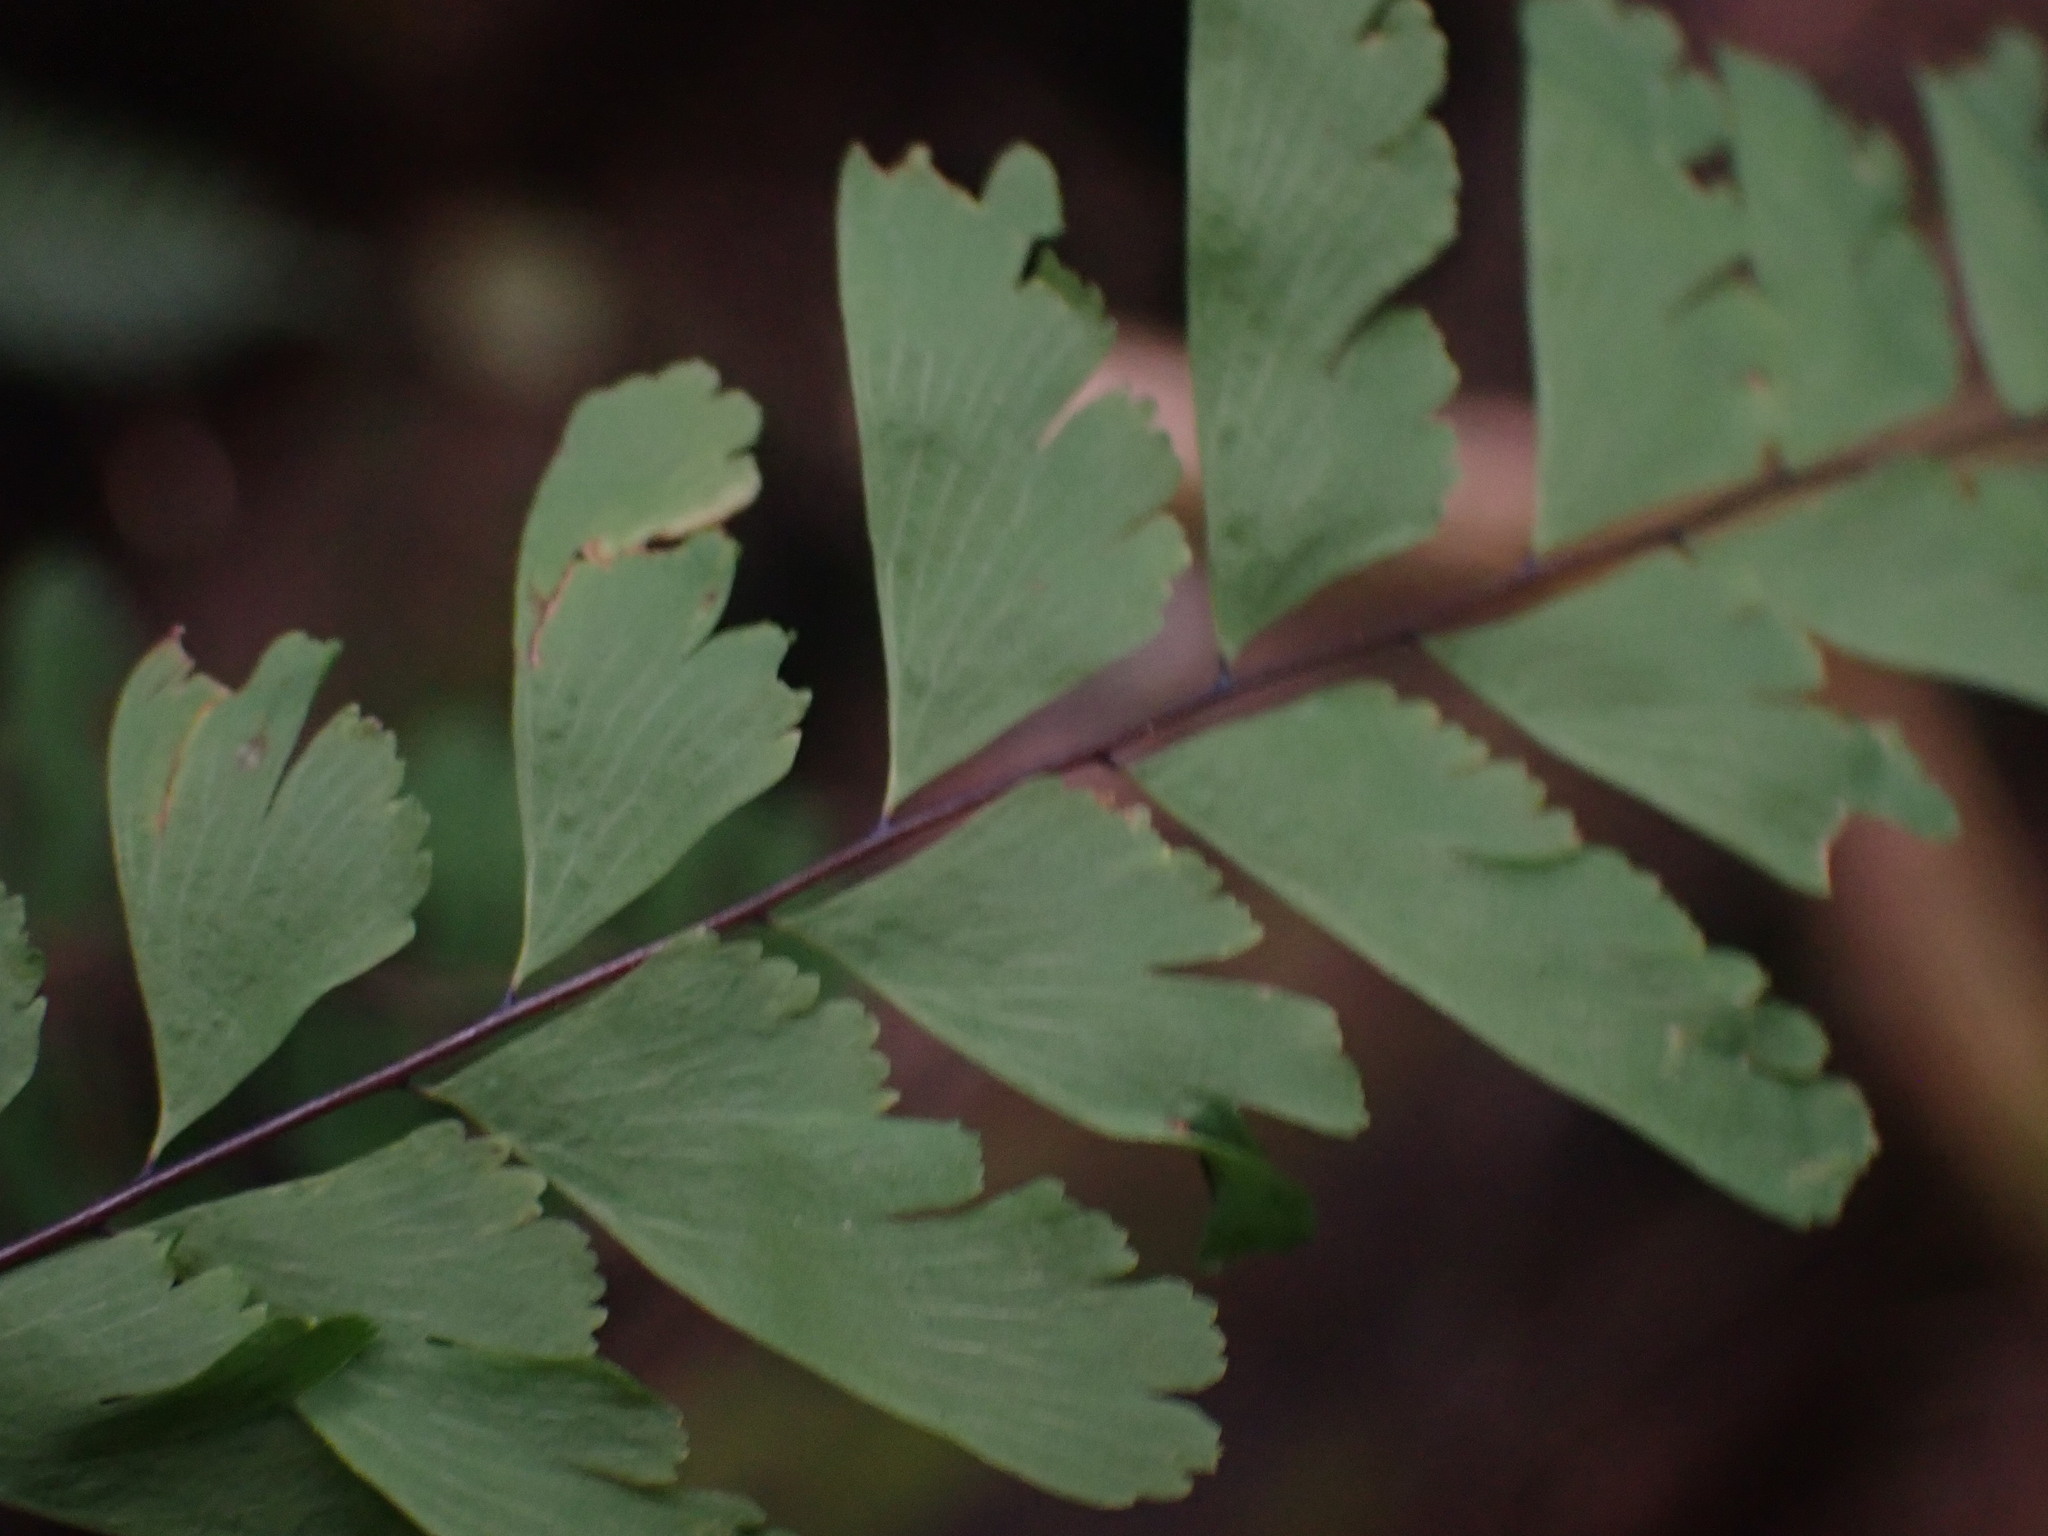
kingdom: Plantae
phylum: Tracheophyta
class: Polypodiopsida
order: Polypodiales
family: Pteridaceae
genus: Adiantum
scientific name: Adiantum aleuticum
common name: Aleutian maidenhair fern
